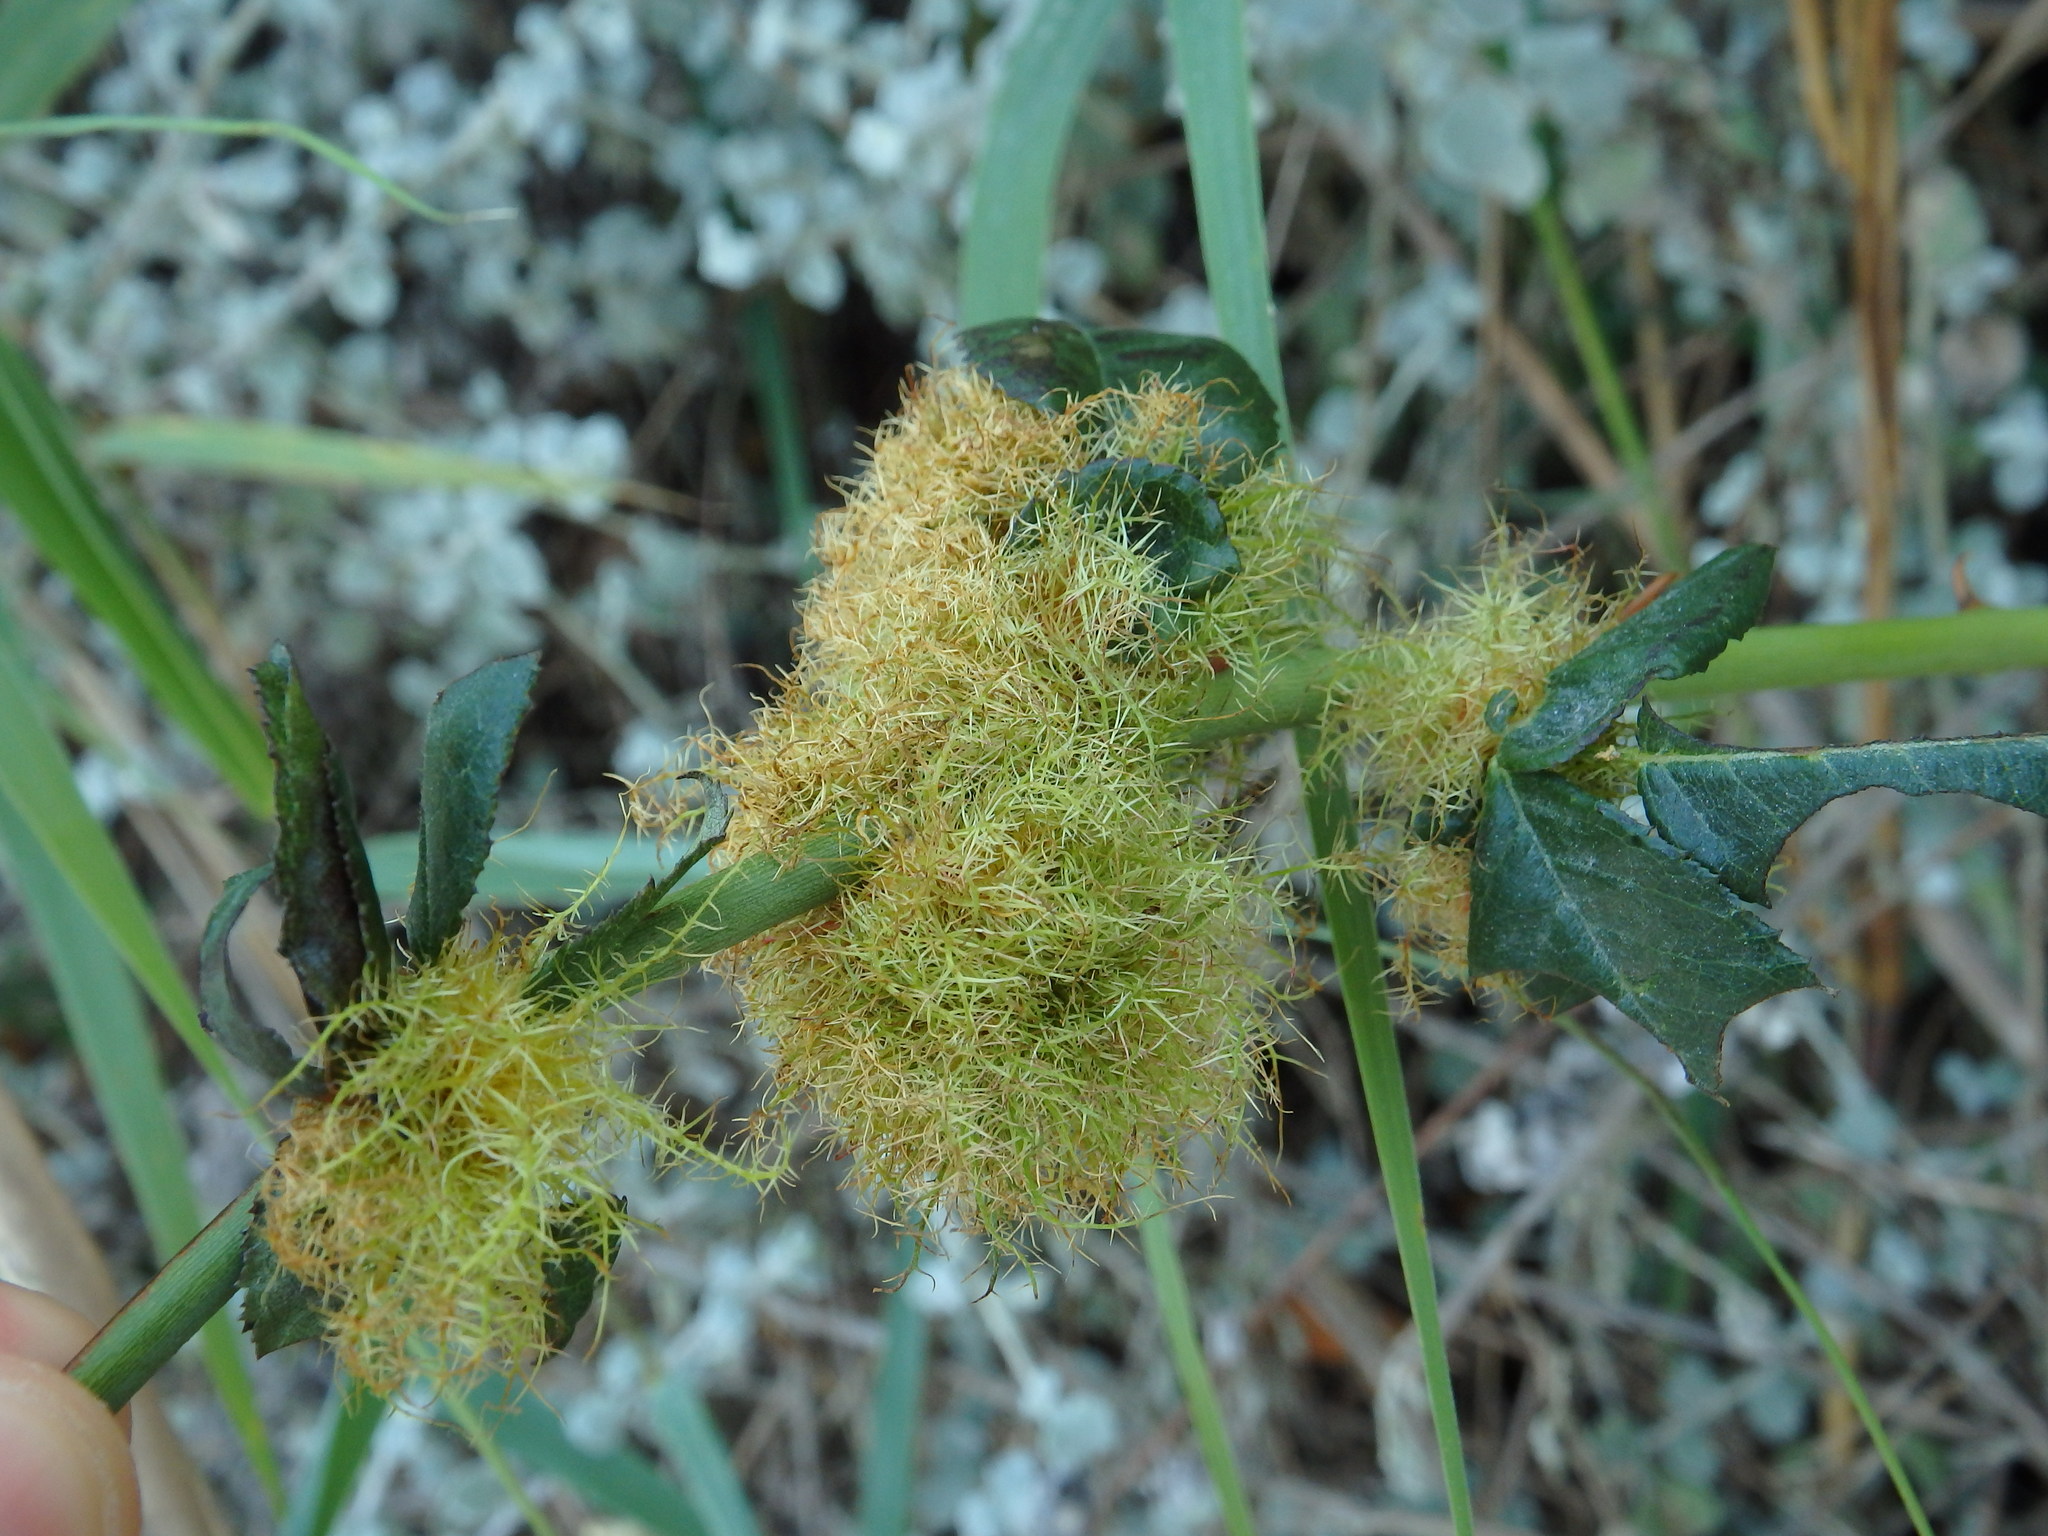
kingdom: Animalia
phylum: Arthropoda
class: Insecta
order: Hymenoptera
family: Cynipidae
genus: Diplolepis
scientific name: Diplolepis rosae
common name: Bedeguar gall
